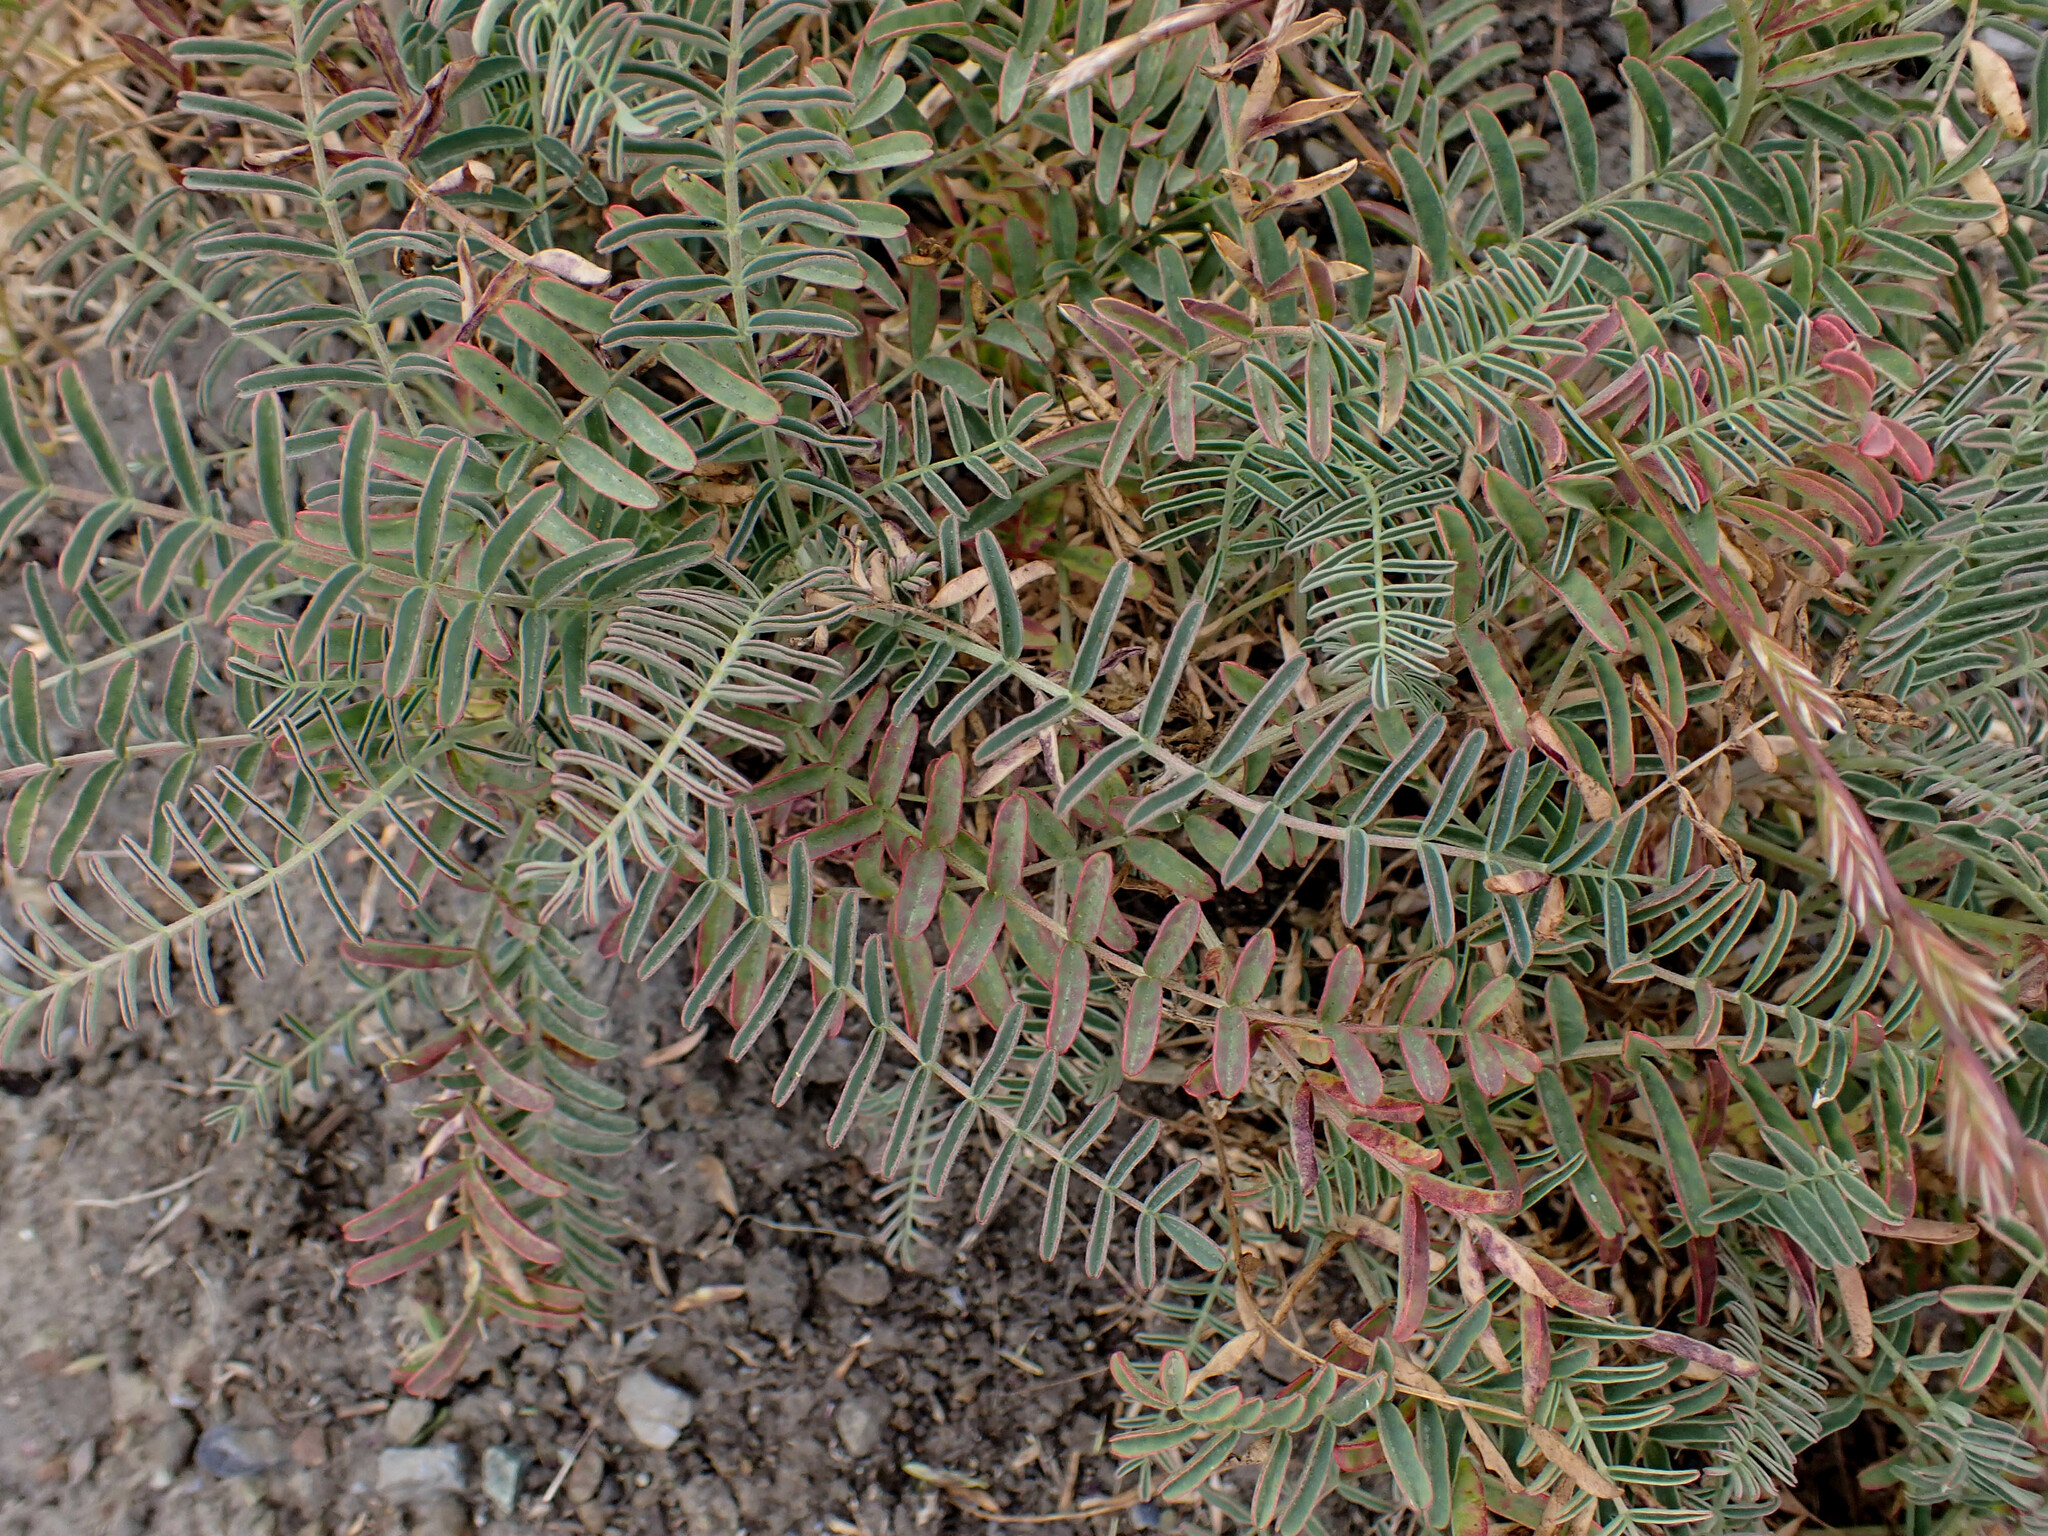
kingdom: Plantae
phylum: Tracheophyta
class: Magnoliopsida
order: Fabales
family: Fabaceae
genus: Astragalus
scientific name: Astragalus curtipes
